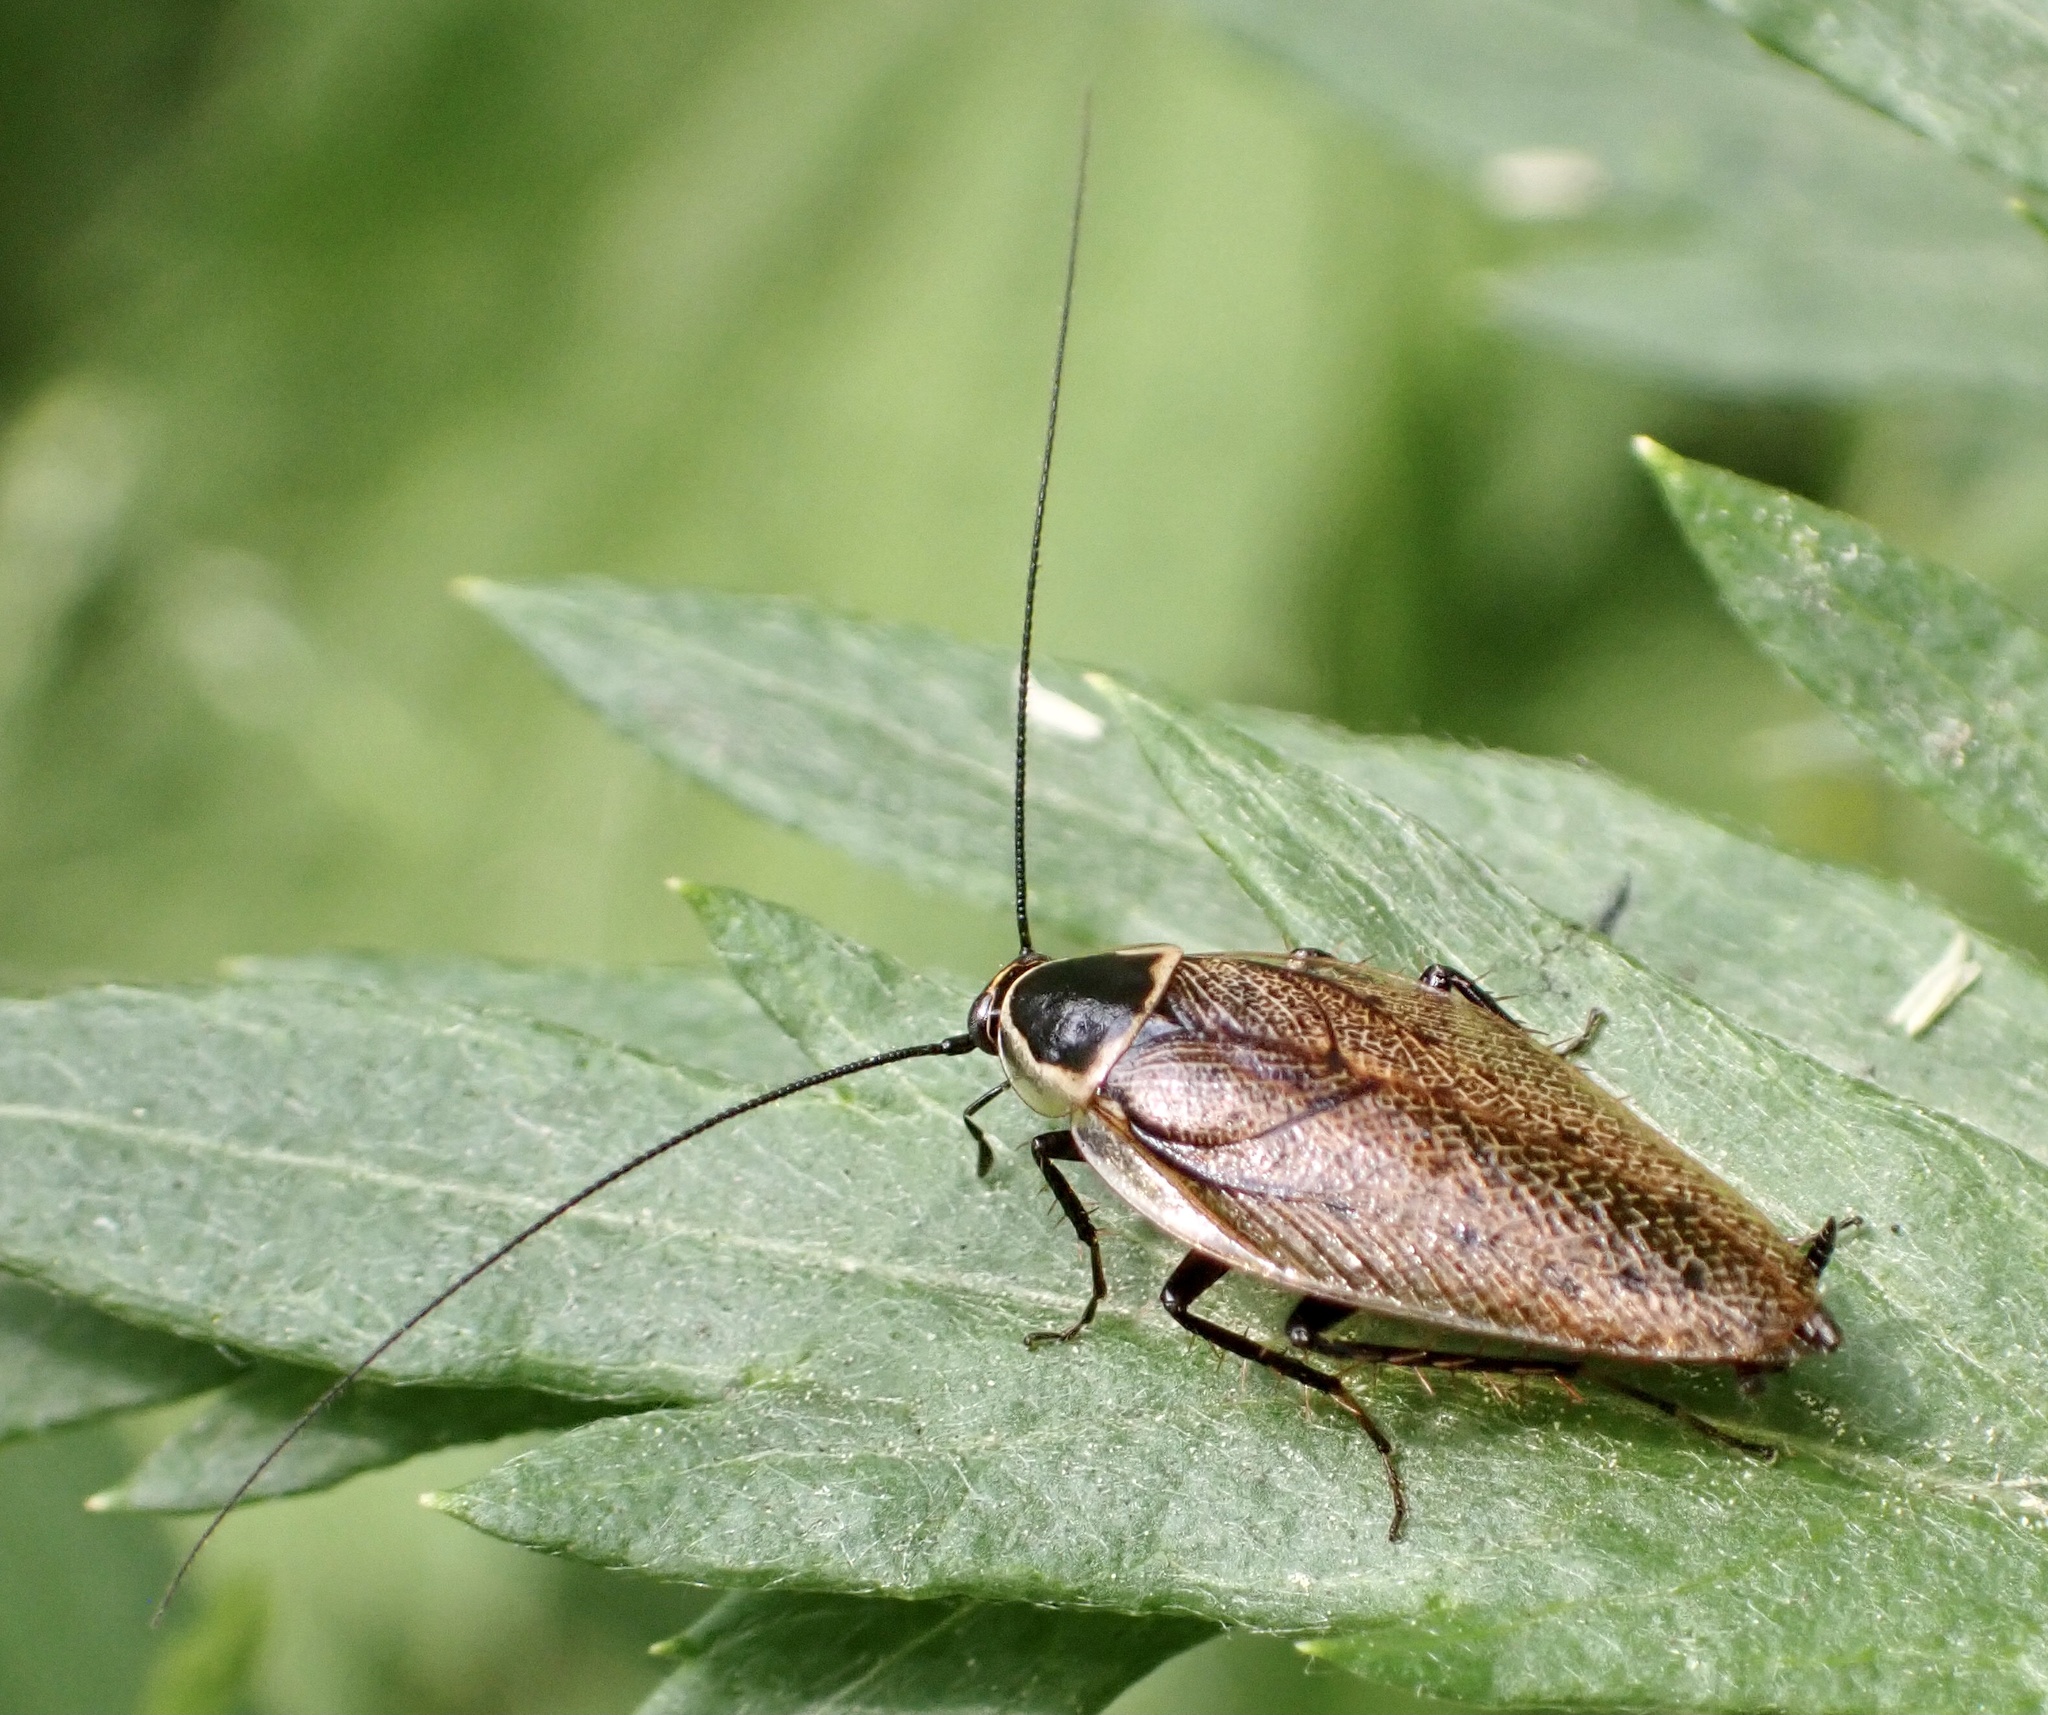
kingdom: Animalia
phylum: Arthropoda
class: Insecta
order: Blattodea
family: Ectobiidae
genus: Ectobius
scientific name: Ectobius sylvestris
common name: Forest cockroach
